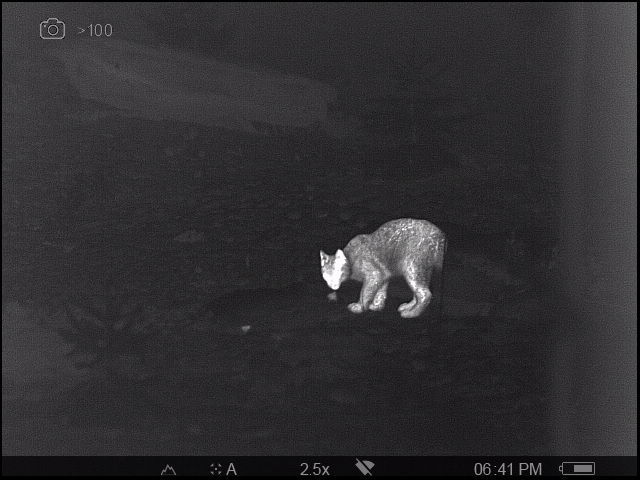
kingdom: Animalia
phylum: Chordata
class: Mammalia
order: Carnivora
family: Felidae
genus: Lynx
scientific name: Lynx lynx
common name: Eurasian lynx
